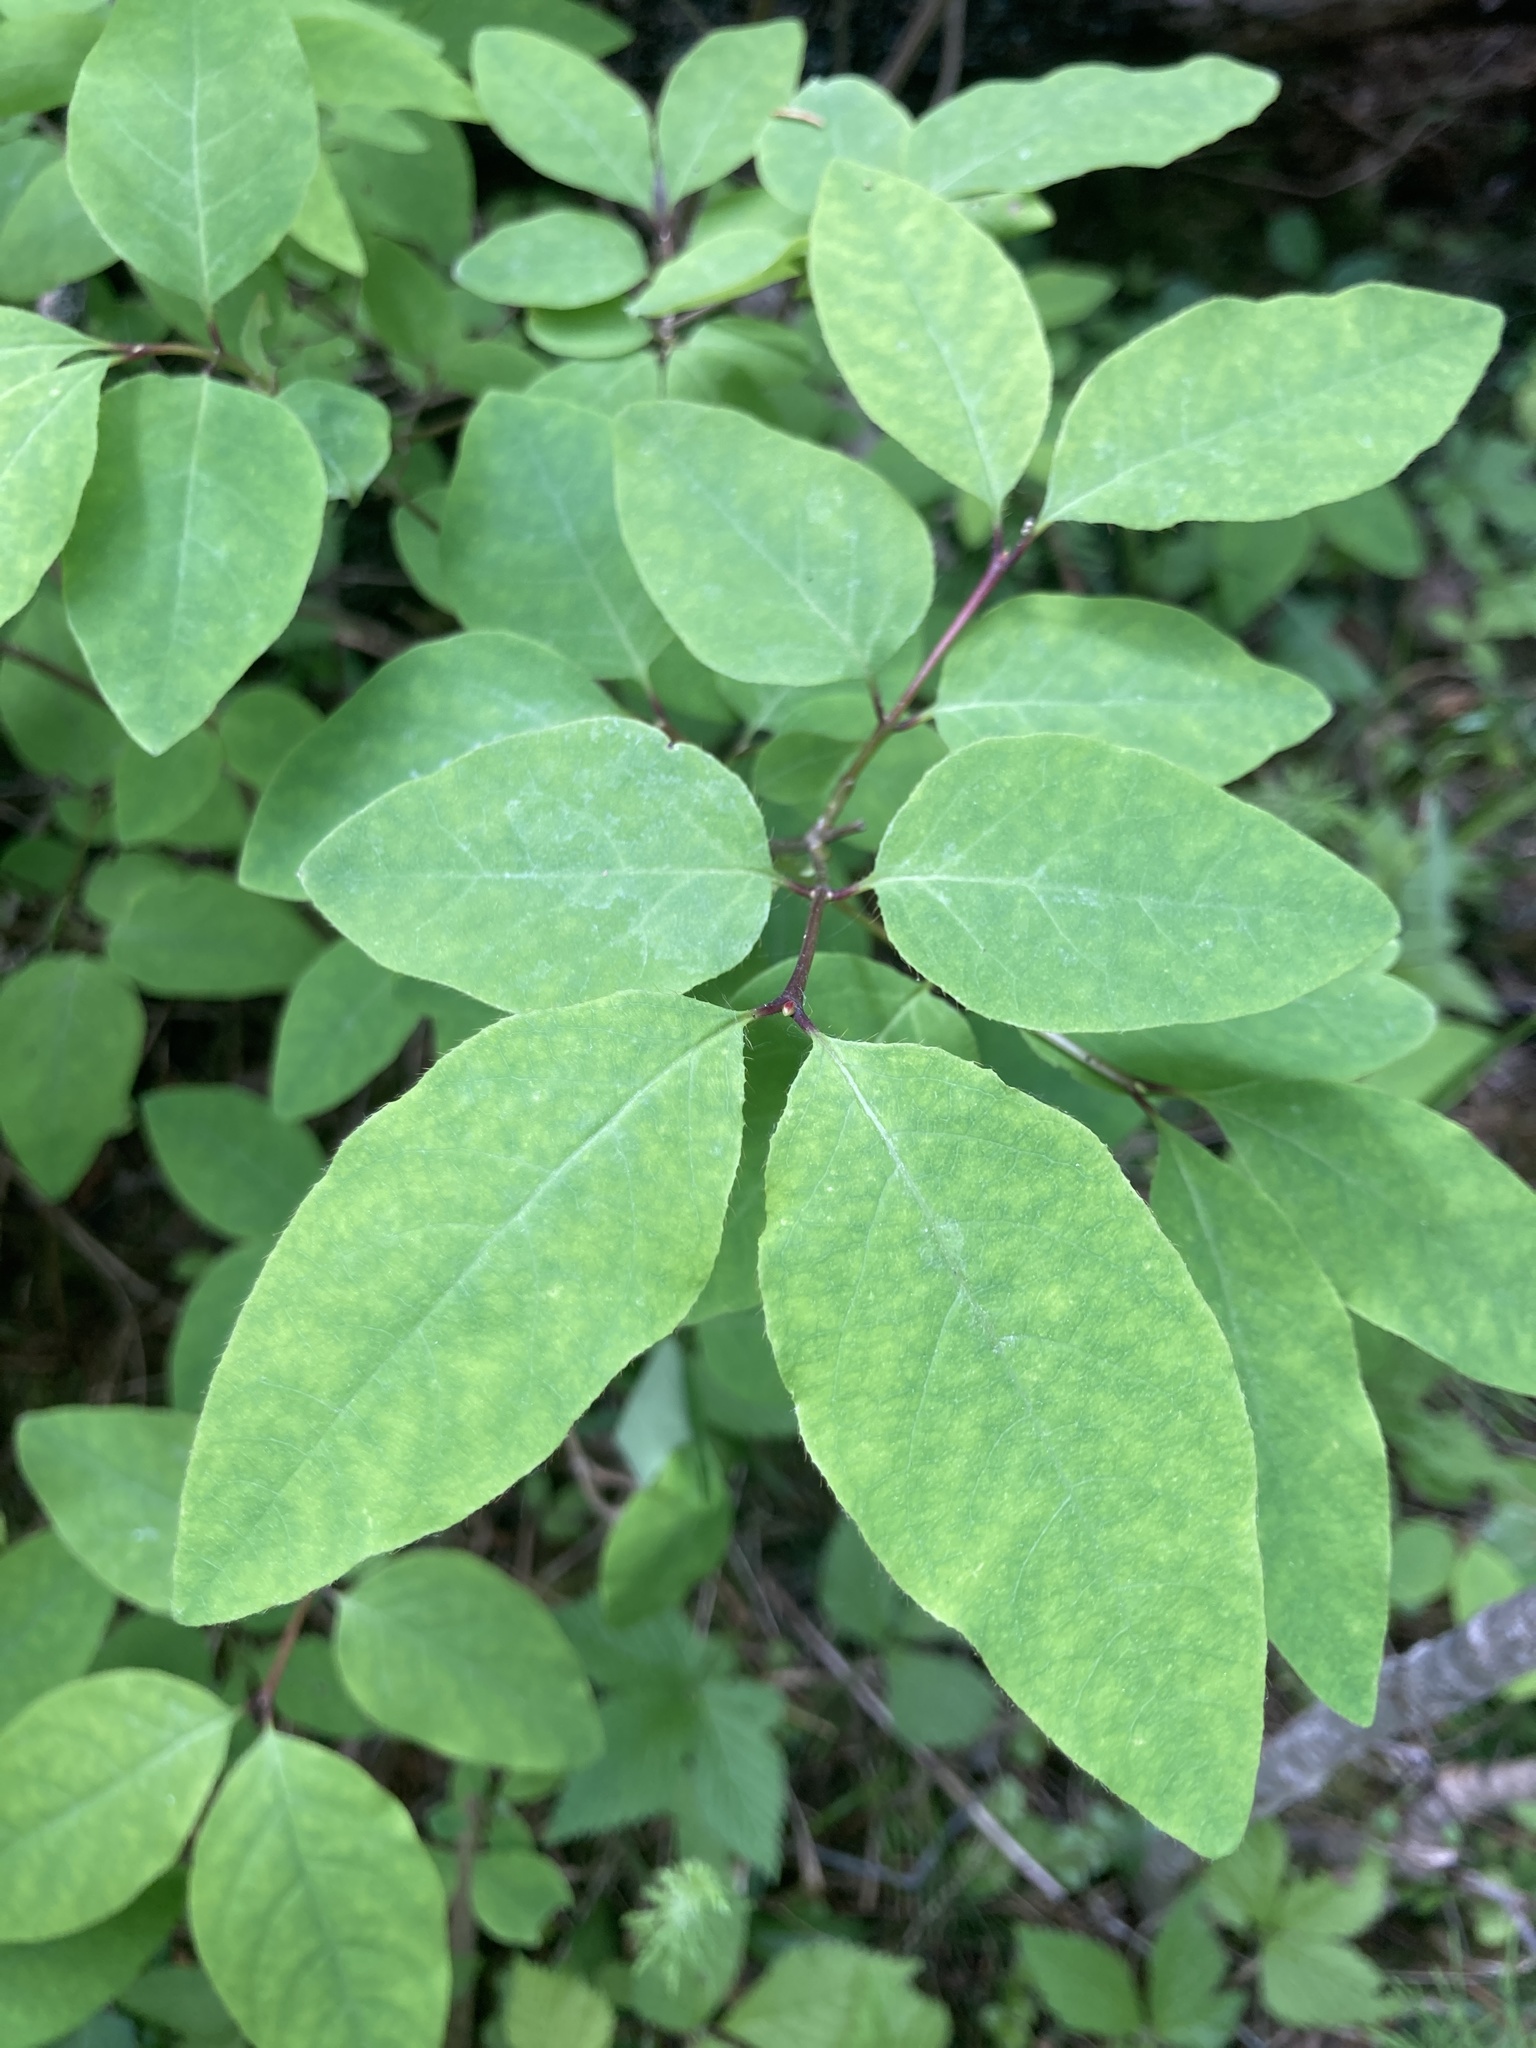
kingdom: Plantae
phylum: Tracheophyta
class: Magnoliopsida
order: Dipsacales
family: Caprifoliaceae
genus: Lonicera
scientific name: Lonicera canadensis
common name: American fly-honeysuckle
